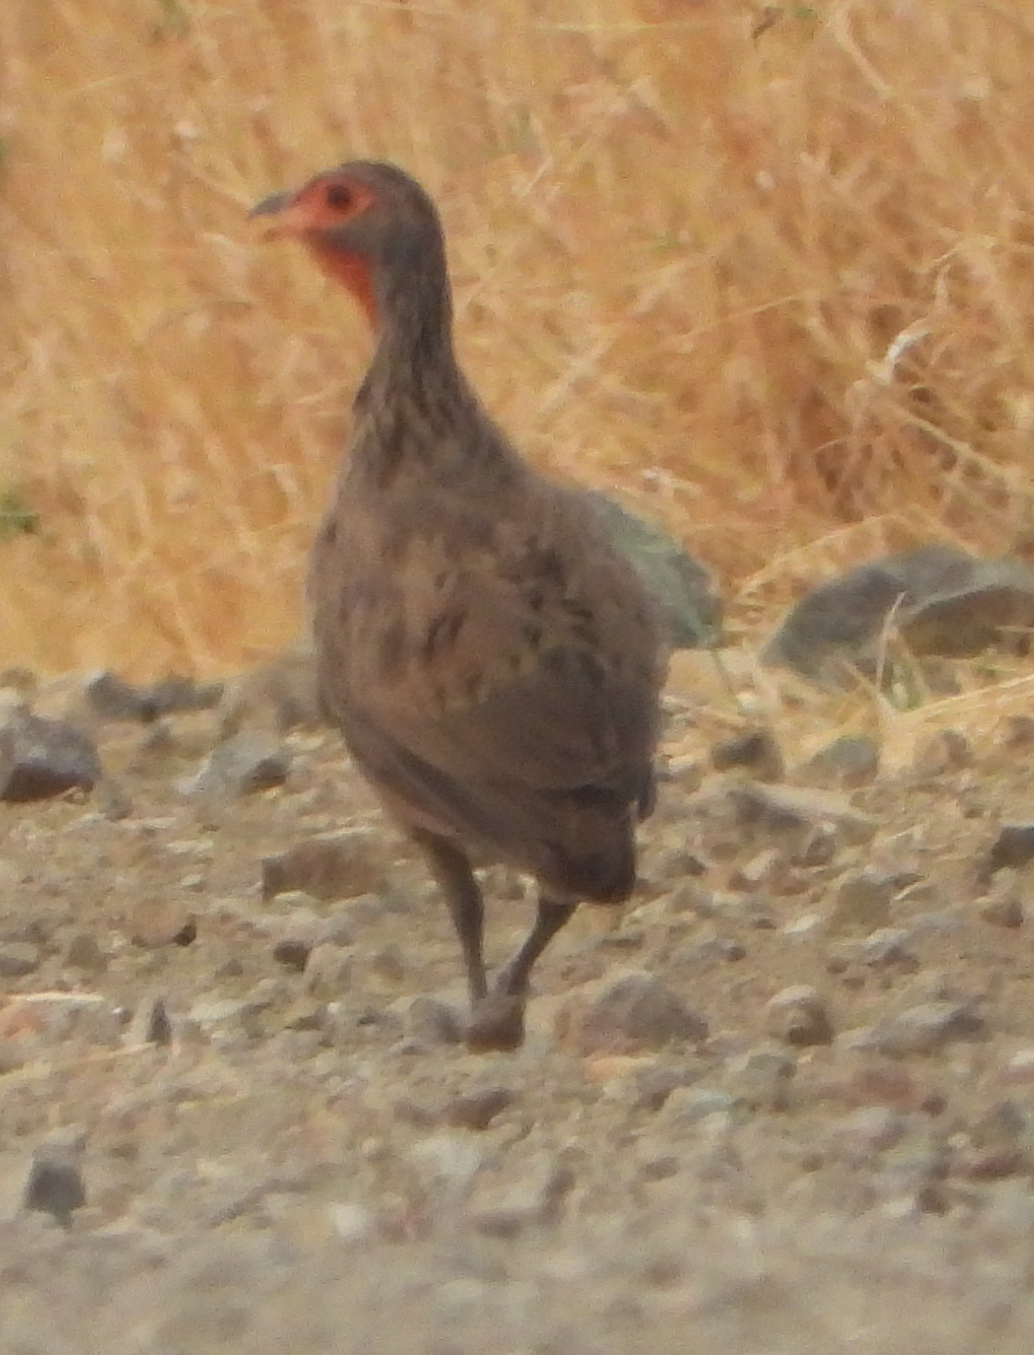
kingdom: Animalia
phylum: Chordata
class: Aves
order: Galliformes
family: Phasianidae
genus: Pternistis
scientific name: Pternistis swainsonii
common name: Swainson's spurfowl
